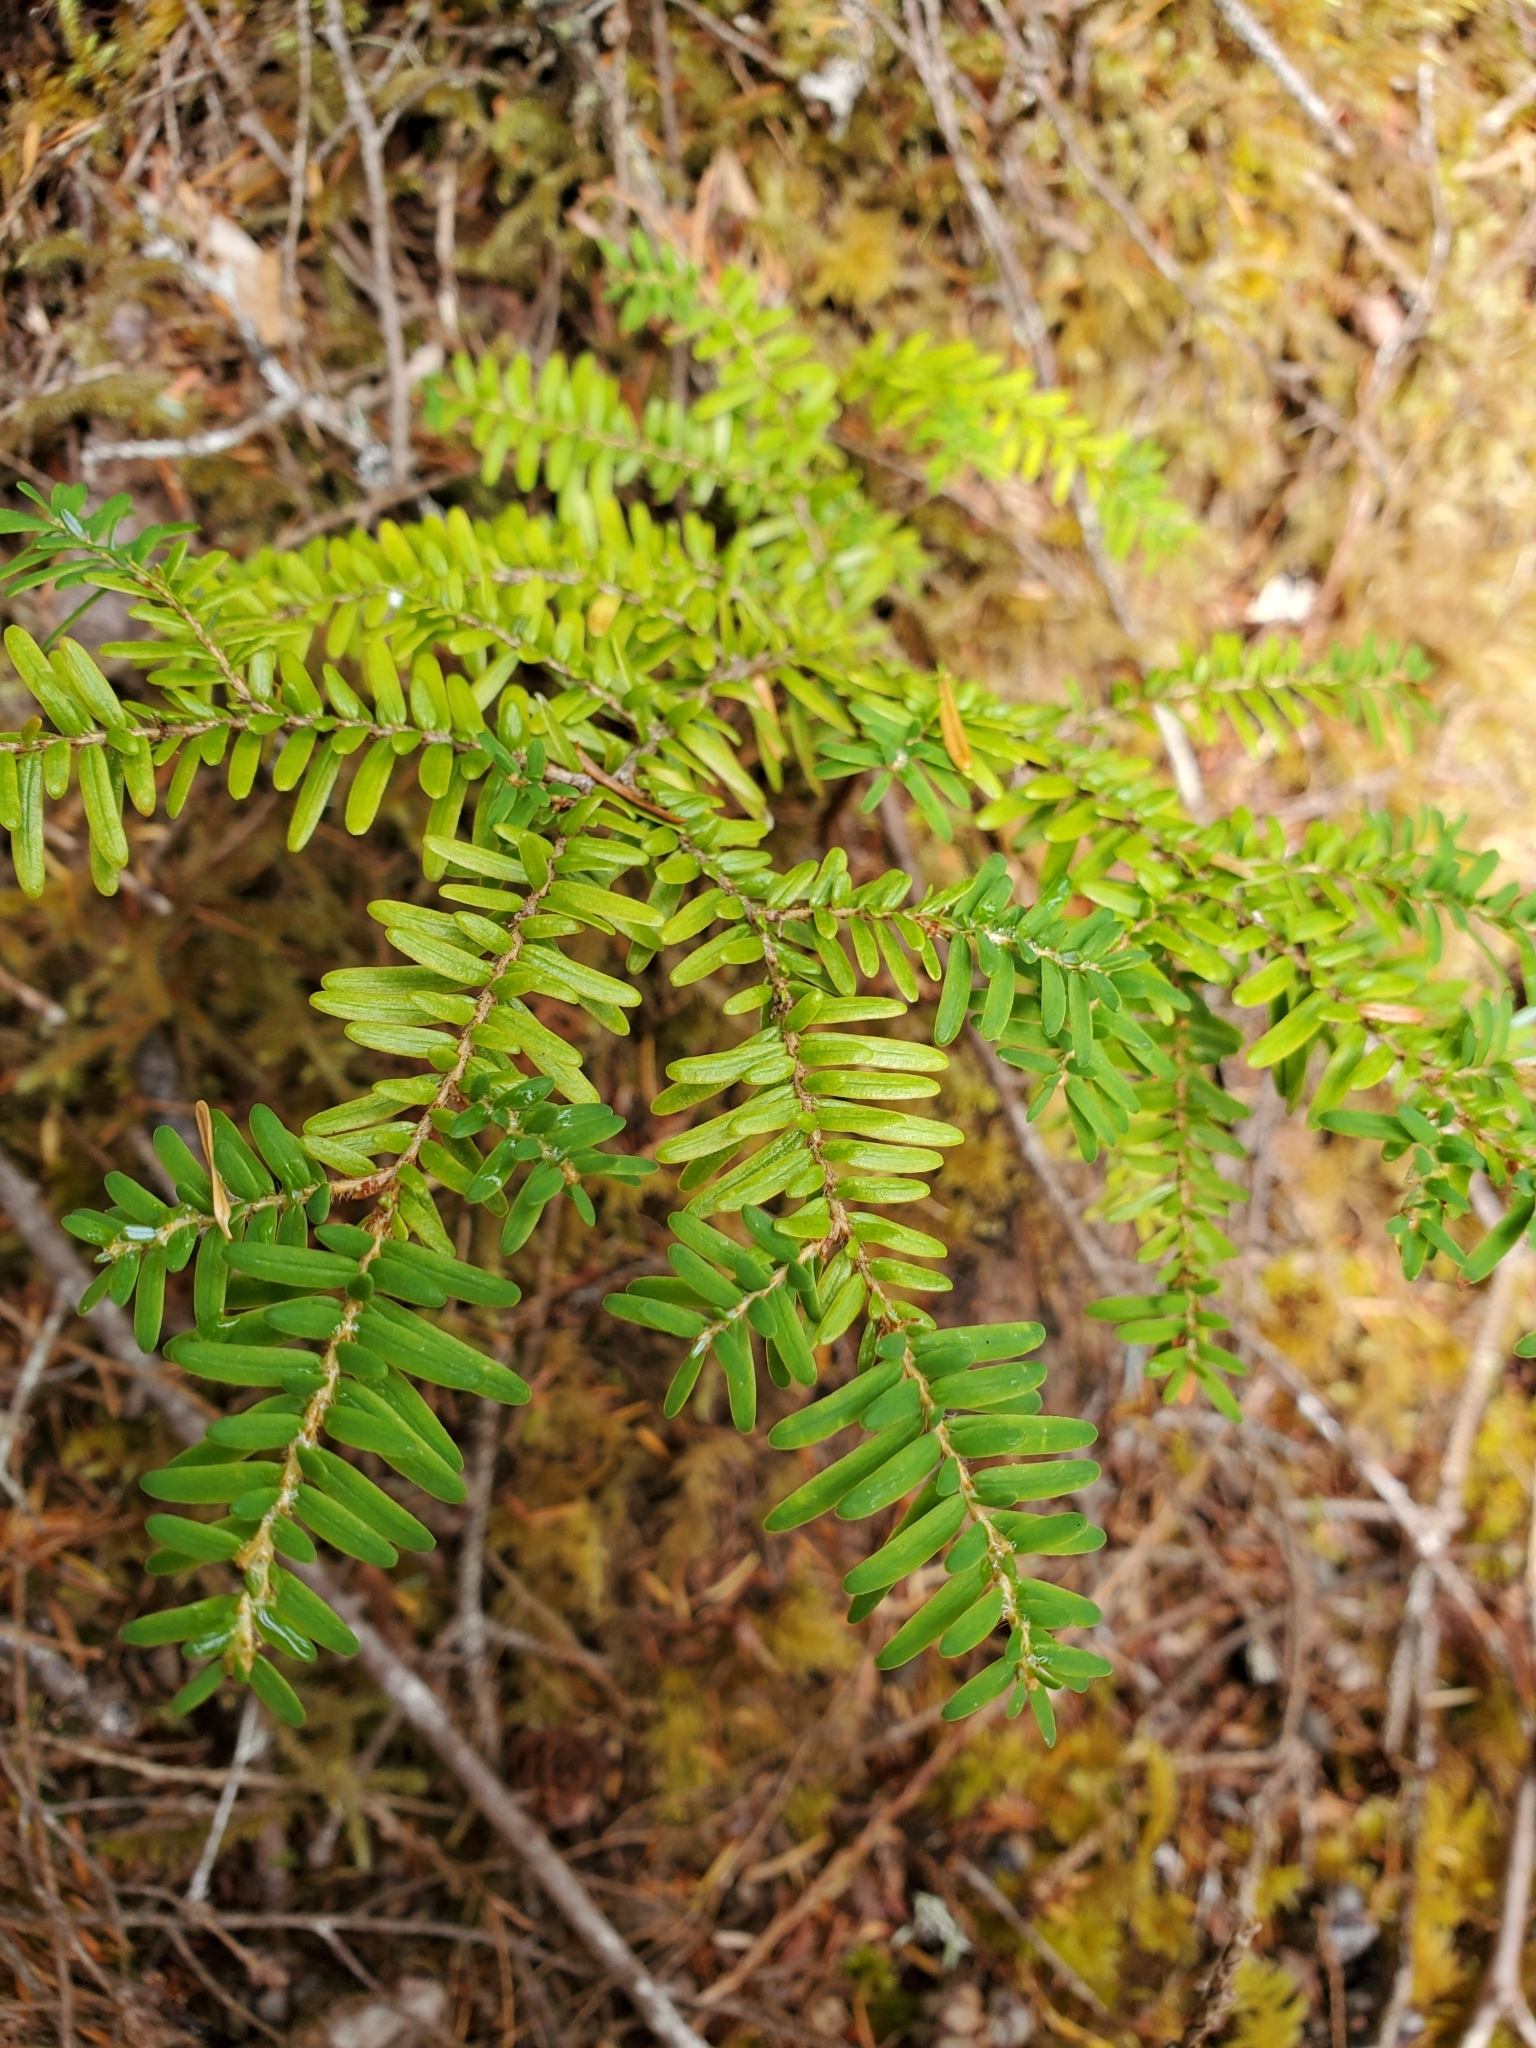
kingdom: Plantae
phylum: Tracheophyta
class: Pinopsida
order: Pinales
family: Pinaceae
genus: Tsuga
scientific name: Tsuga heterophylla
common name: Western hemlock
